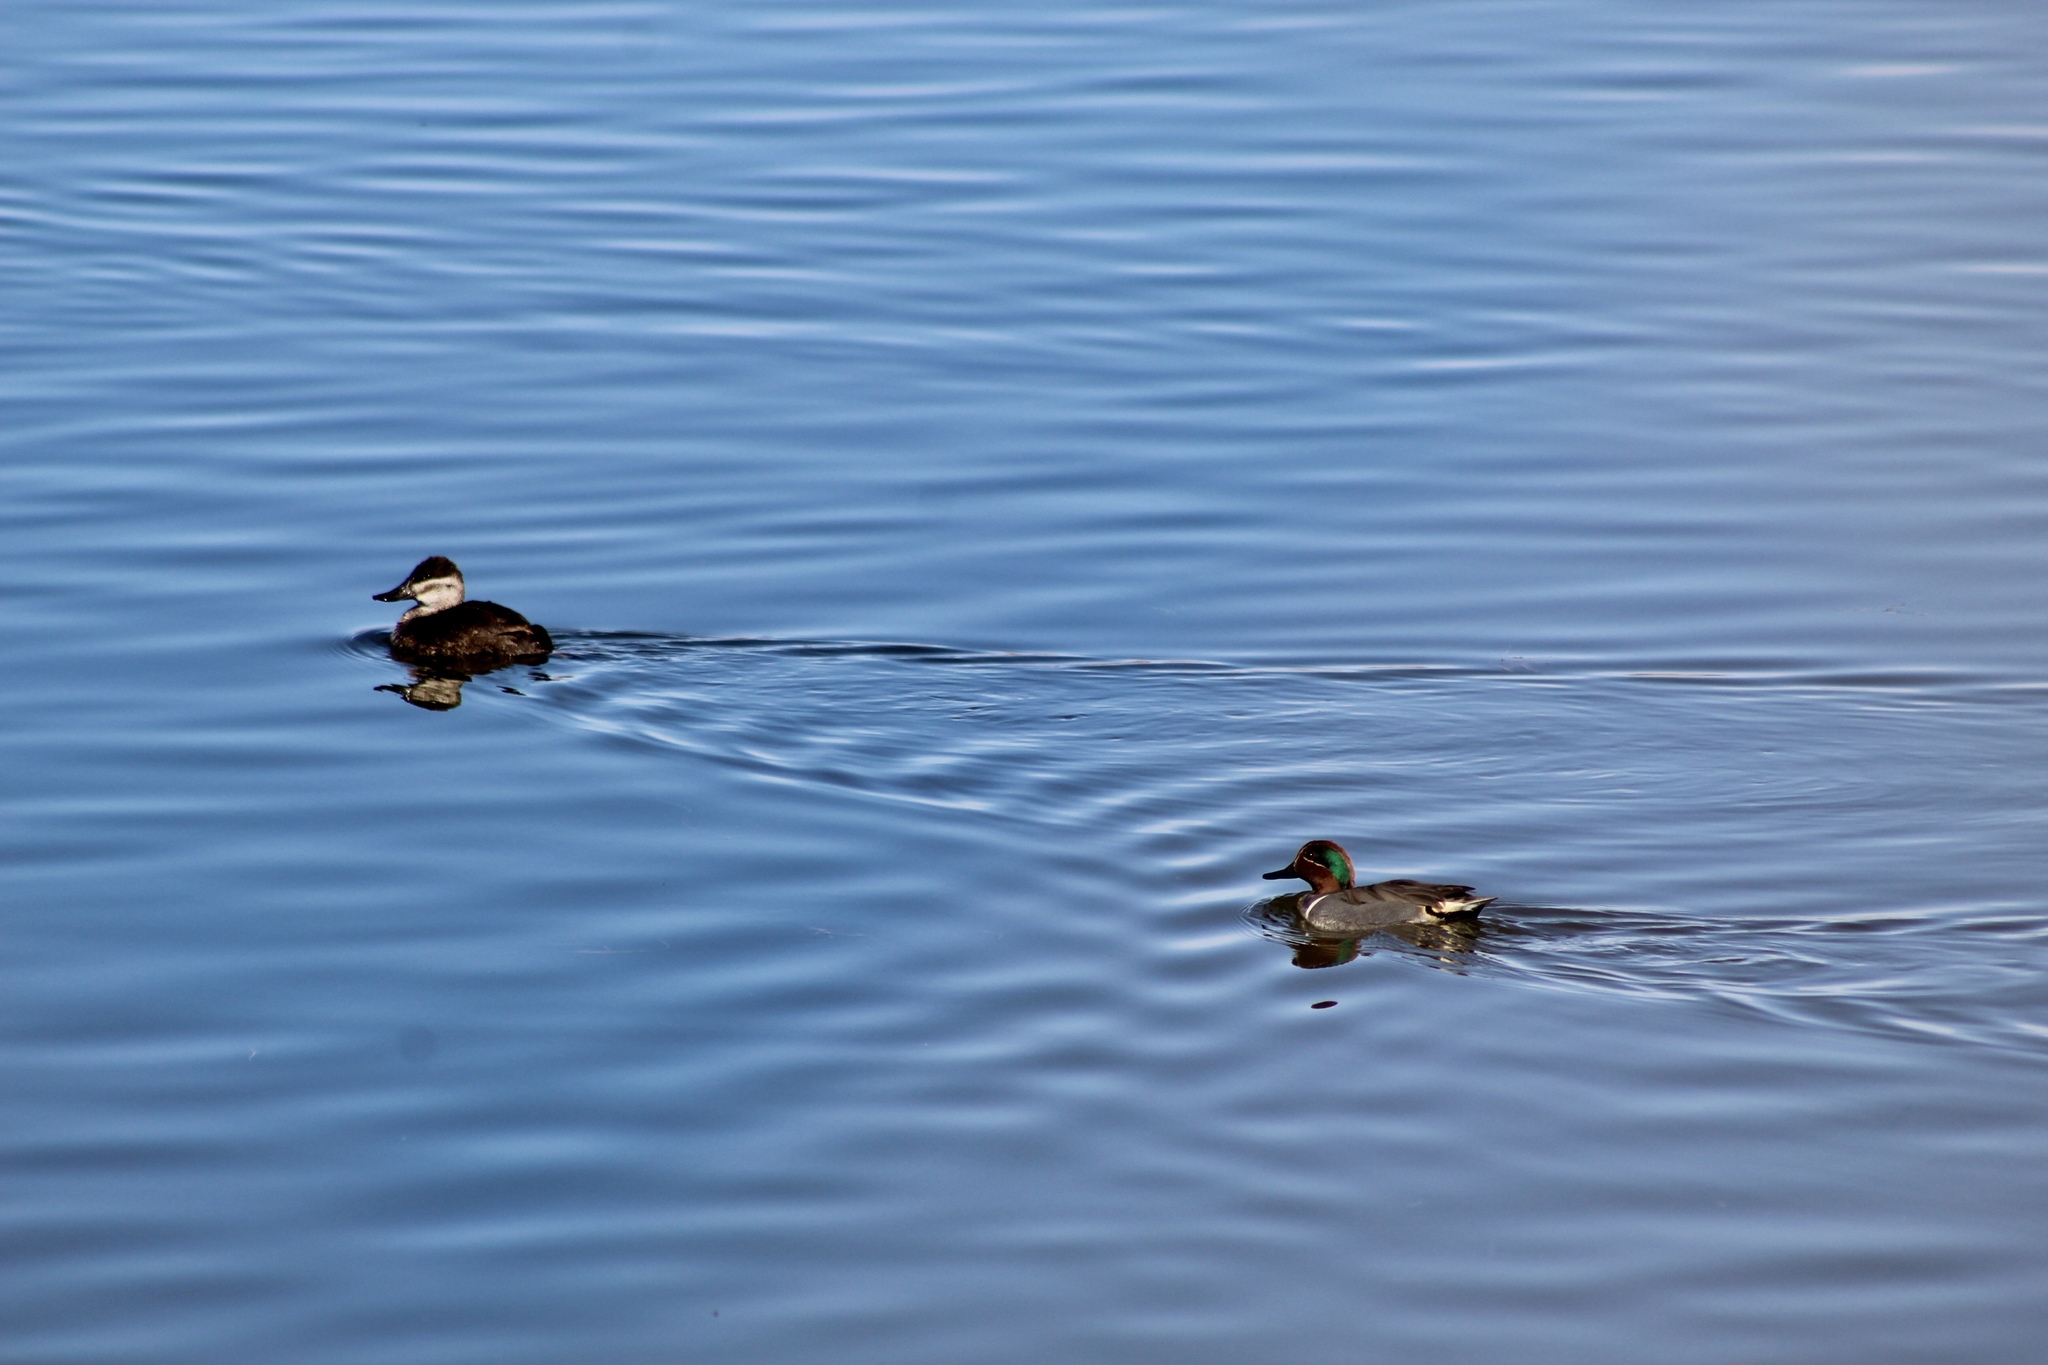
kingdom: Animalia
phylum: Chordata
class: Aves
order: Anseriformes
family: Anatidae
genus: Anas
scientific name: Anas crecca
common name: Eurasian teal
